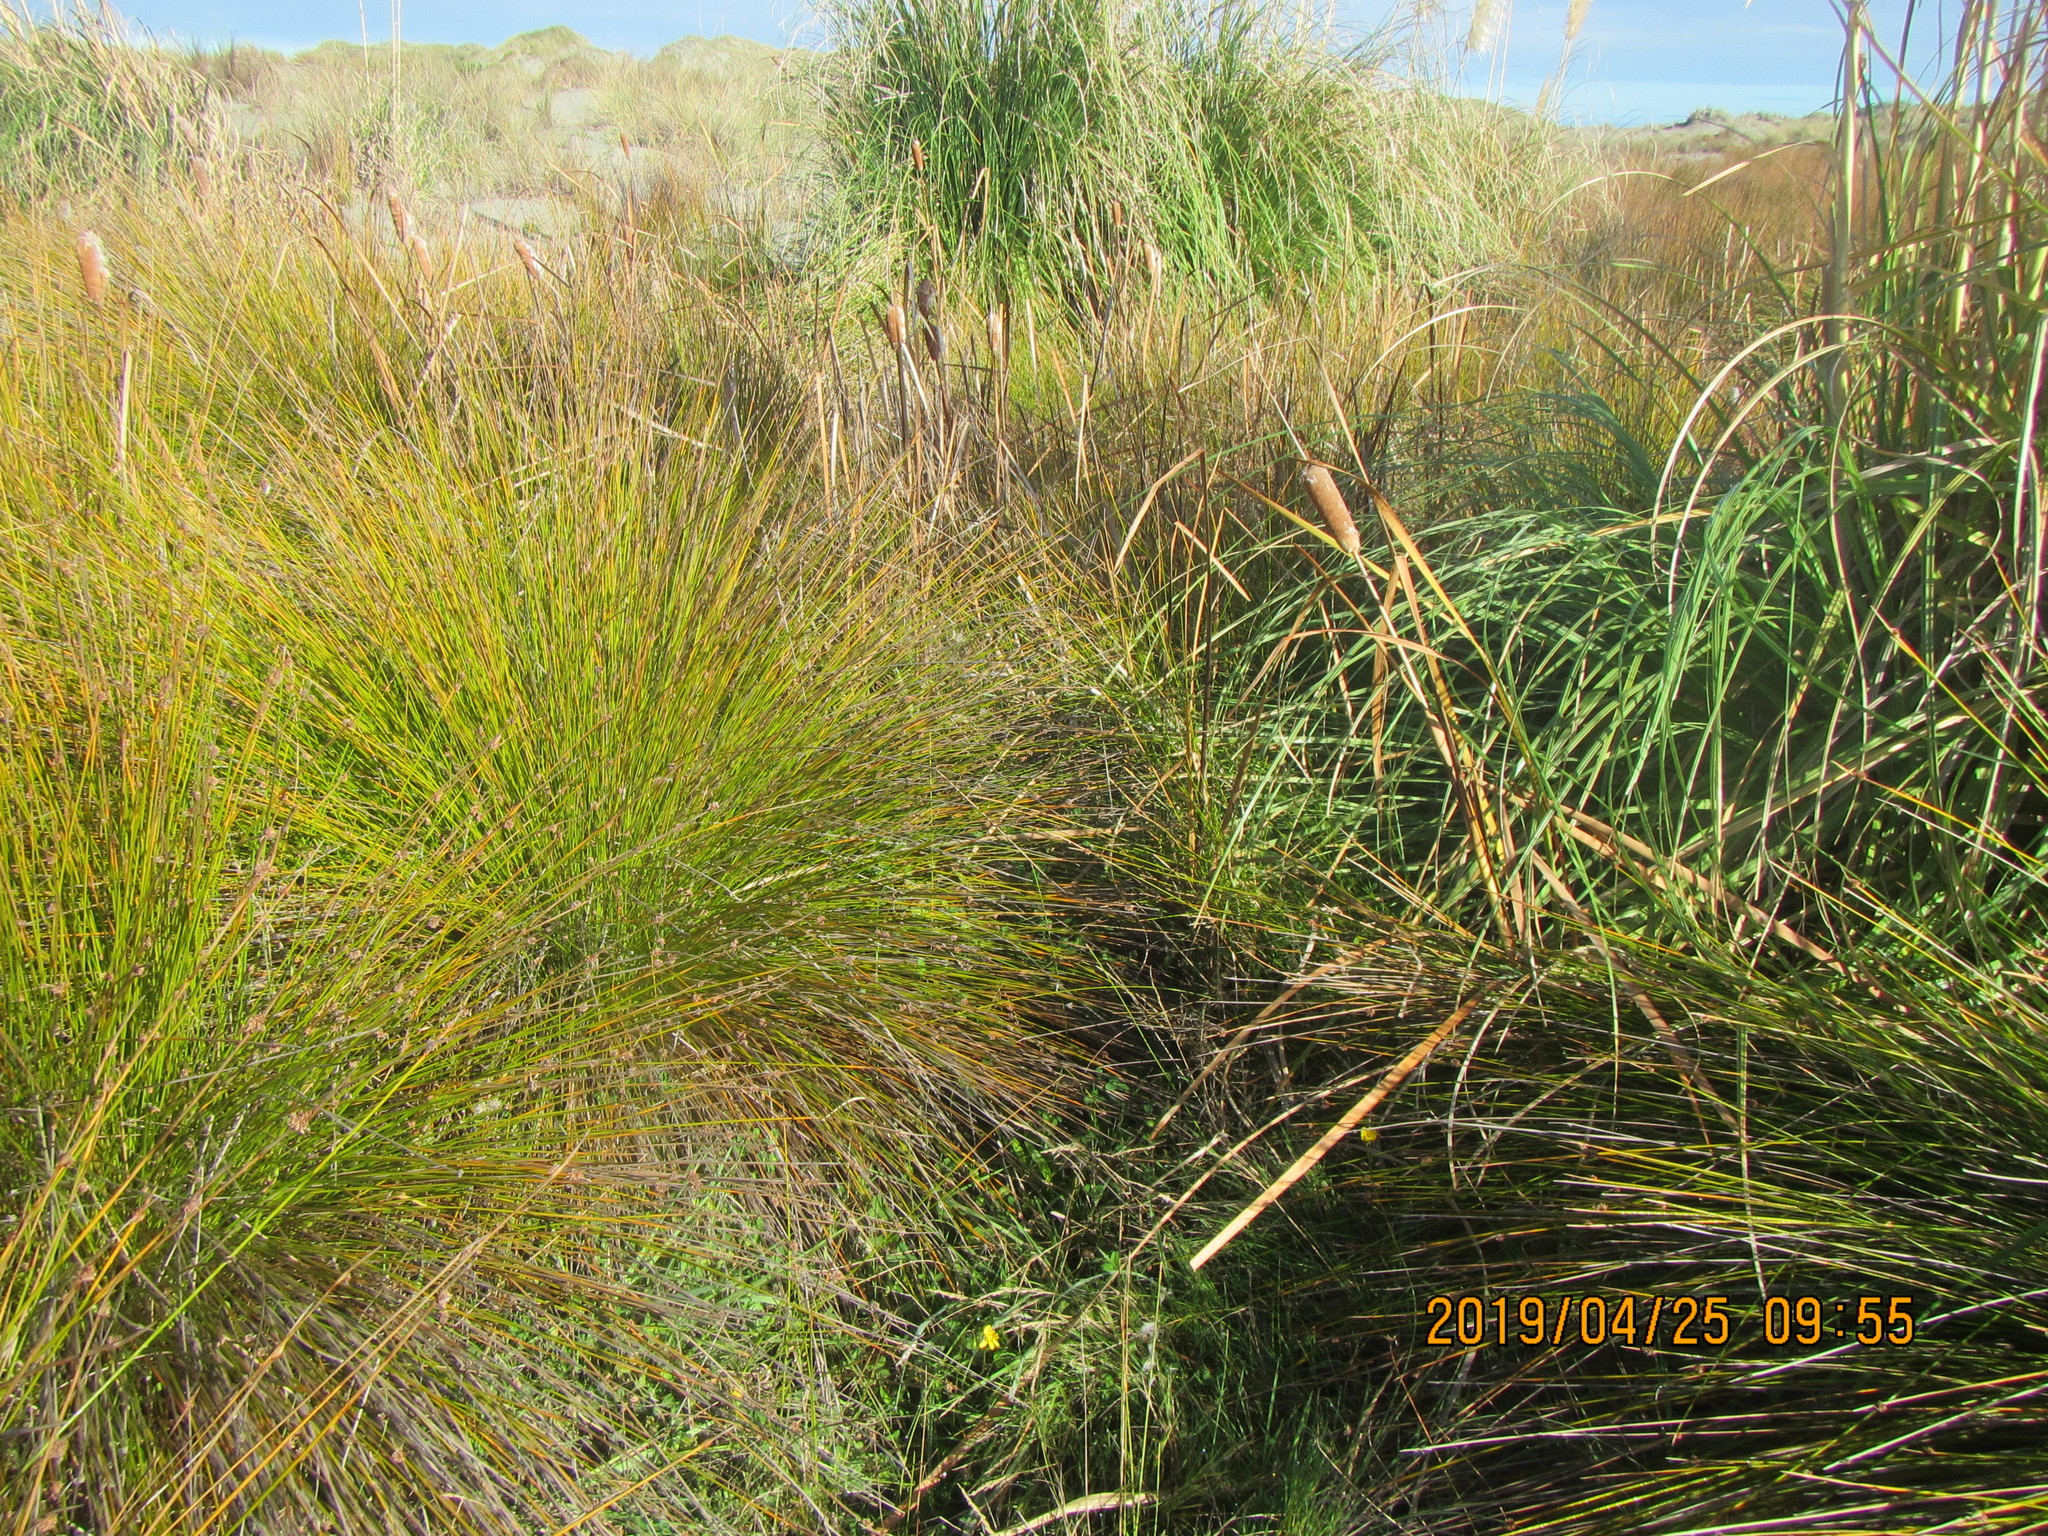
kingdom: Plantae
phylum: Tracheophyta
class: Liliopsida
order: Poales
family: Typhaceae
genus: Typha
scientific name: Typha orientalis
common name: Bullrush
